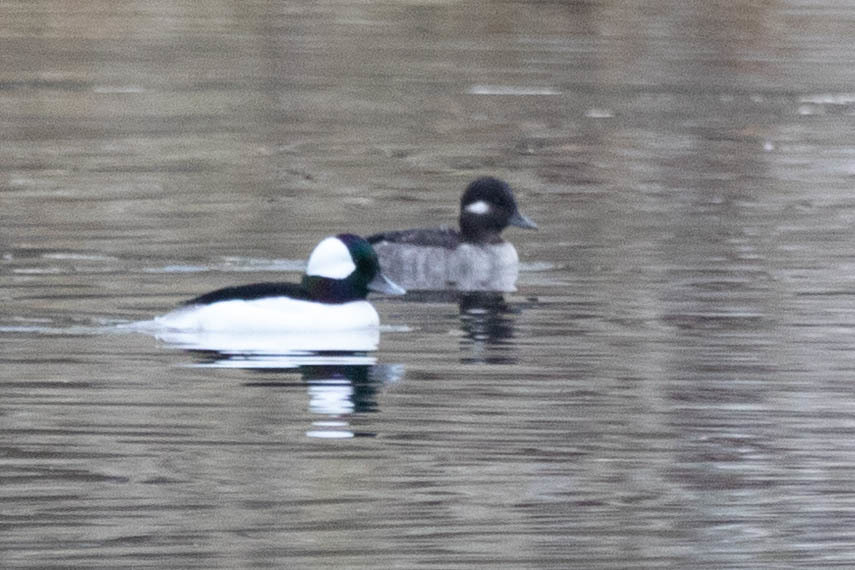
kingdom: Animalia
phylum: Chordata
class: Aves
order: Anseriformes
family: Anatidae
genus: Bucephala
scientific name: Bucephala albeola
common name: Bufflehead
